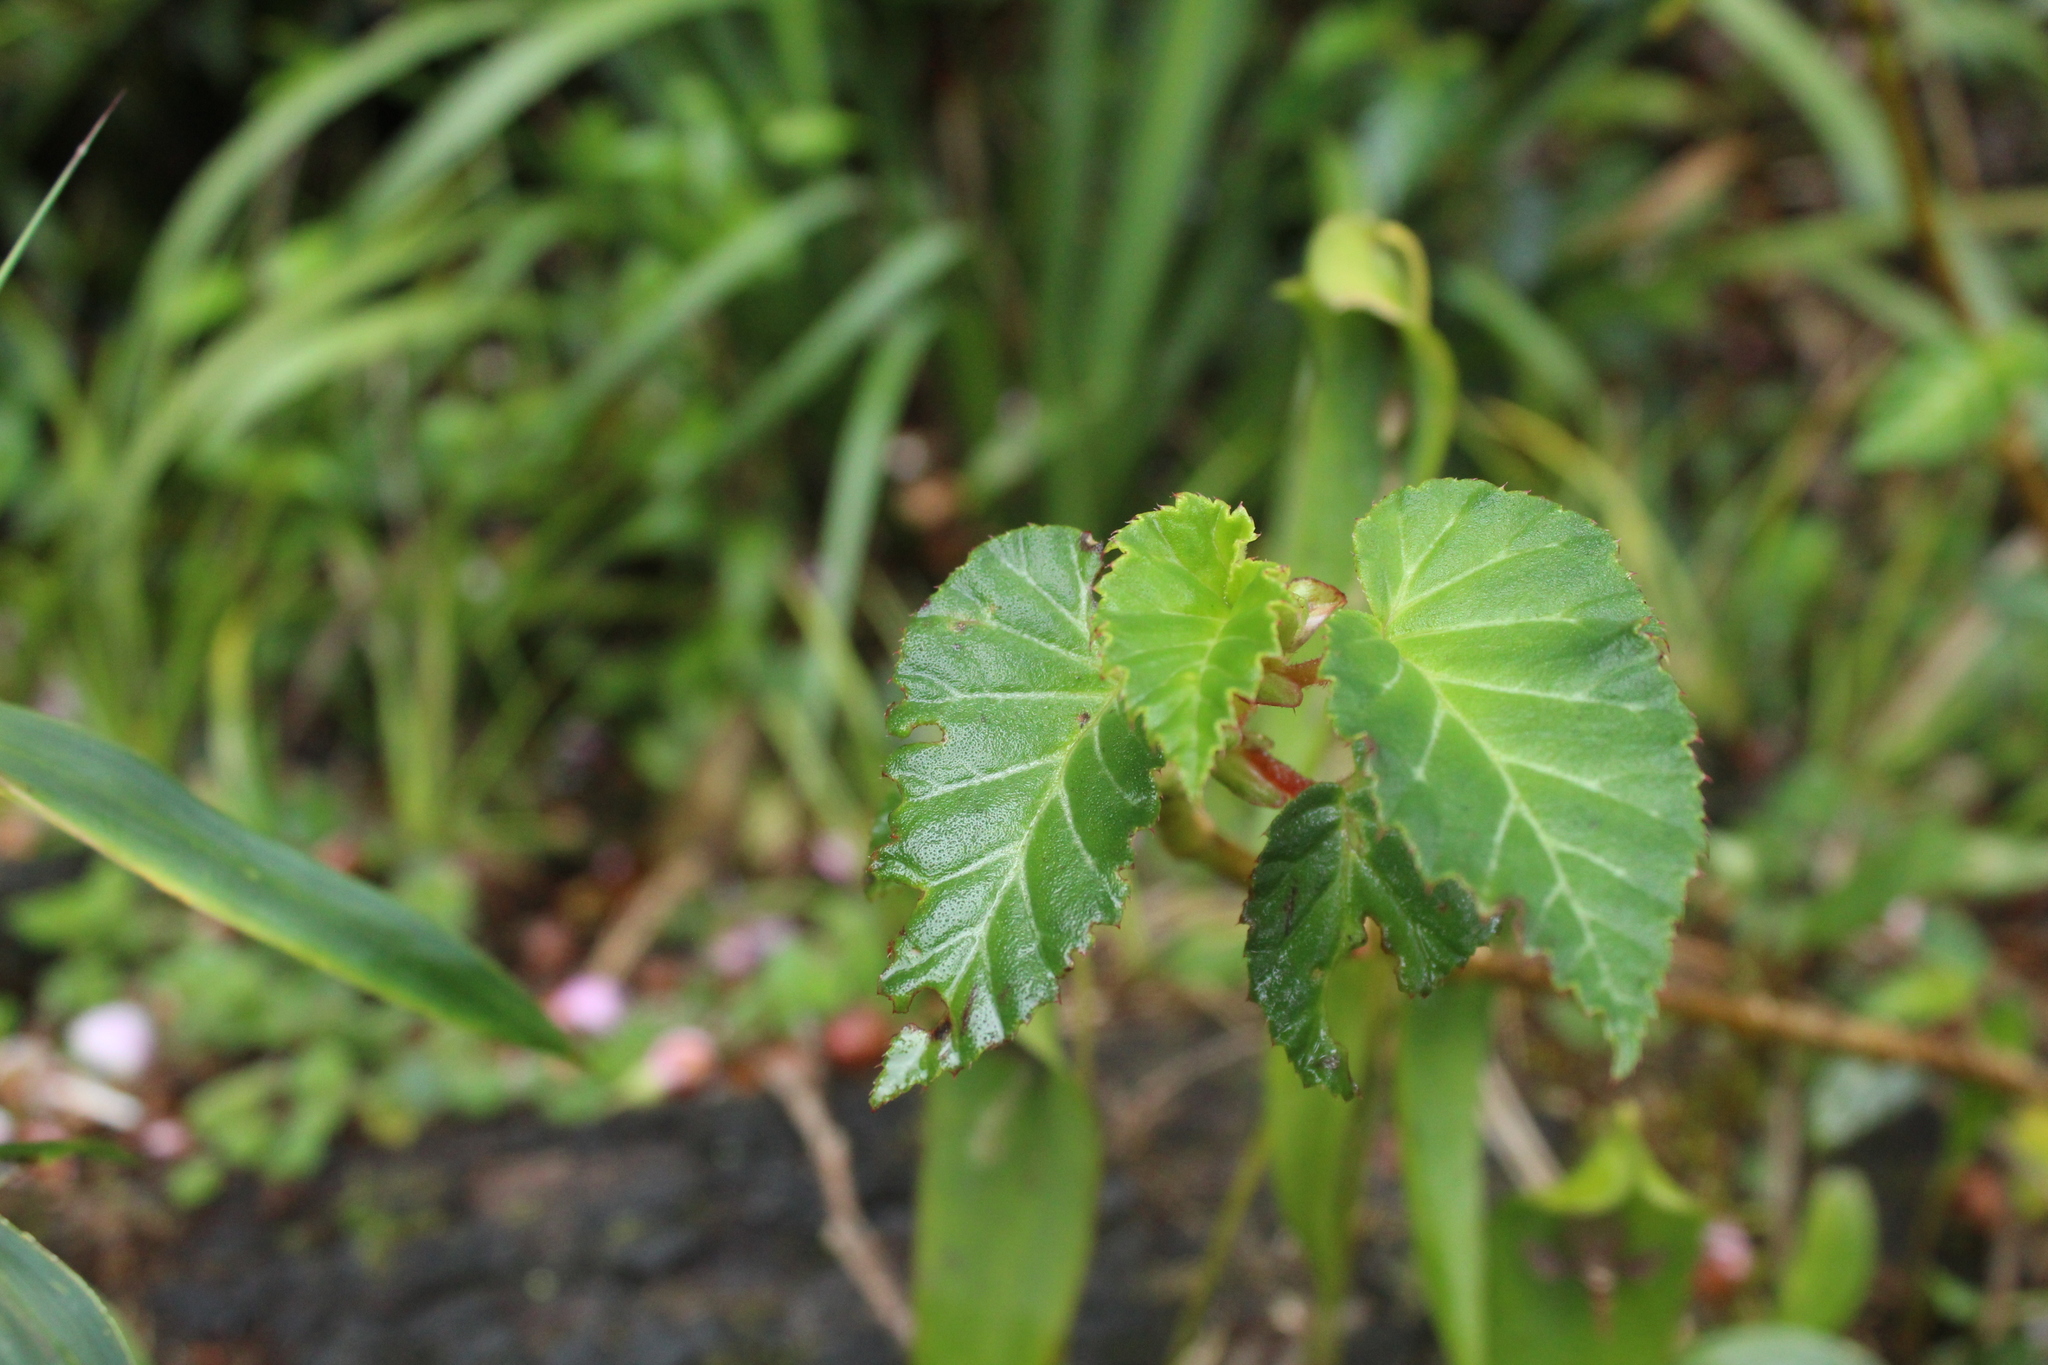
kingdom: Plantae
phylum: Tracheophyta
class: Magnoliopsida
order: Cucurbitales
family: Begoniaceae
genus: Begonia
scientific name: Begonia ferruginea
